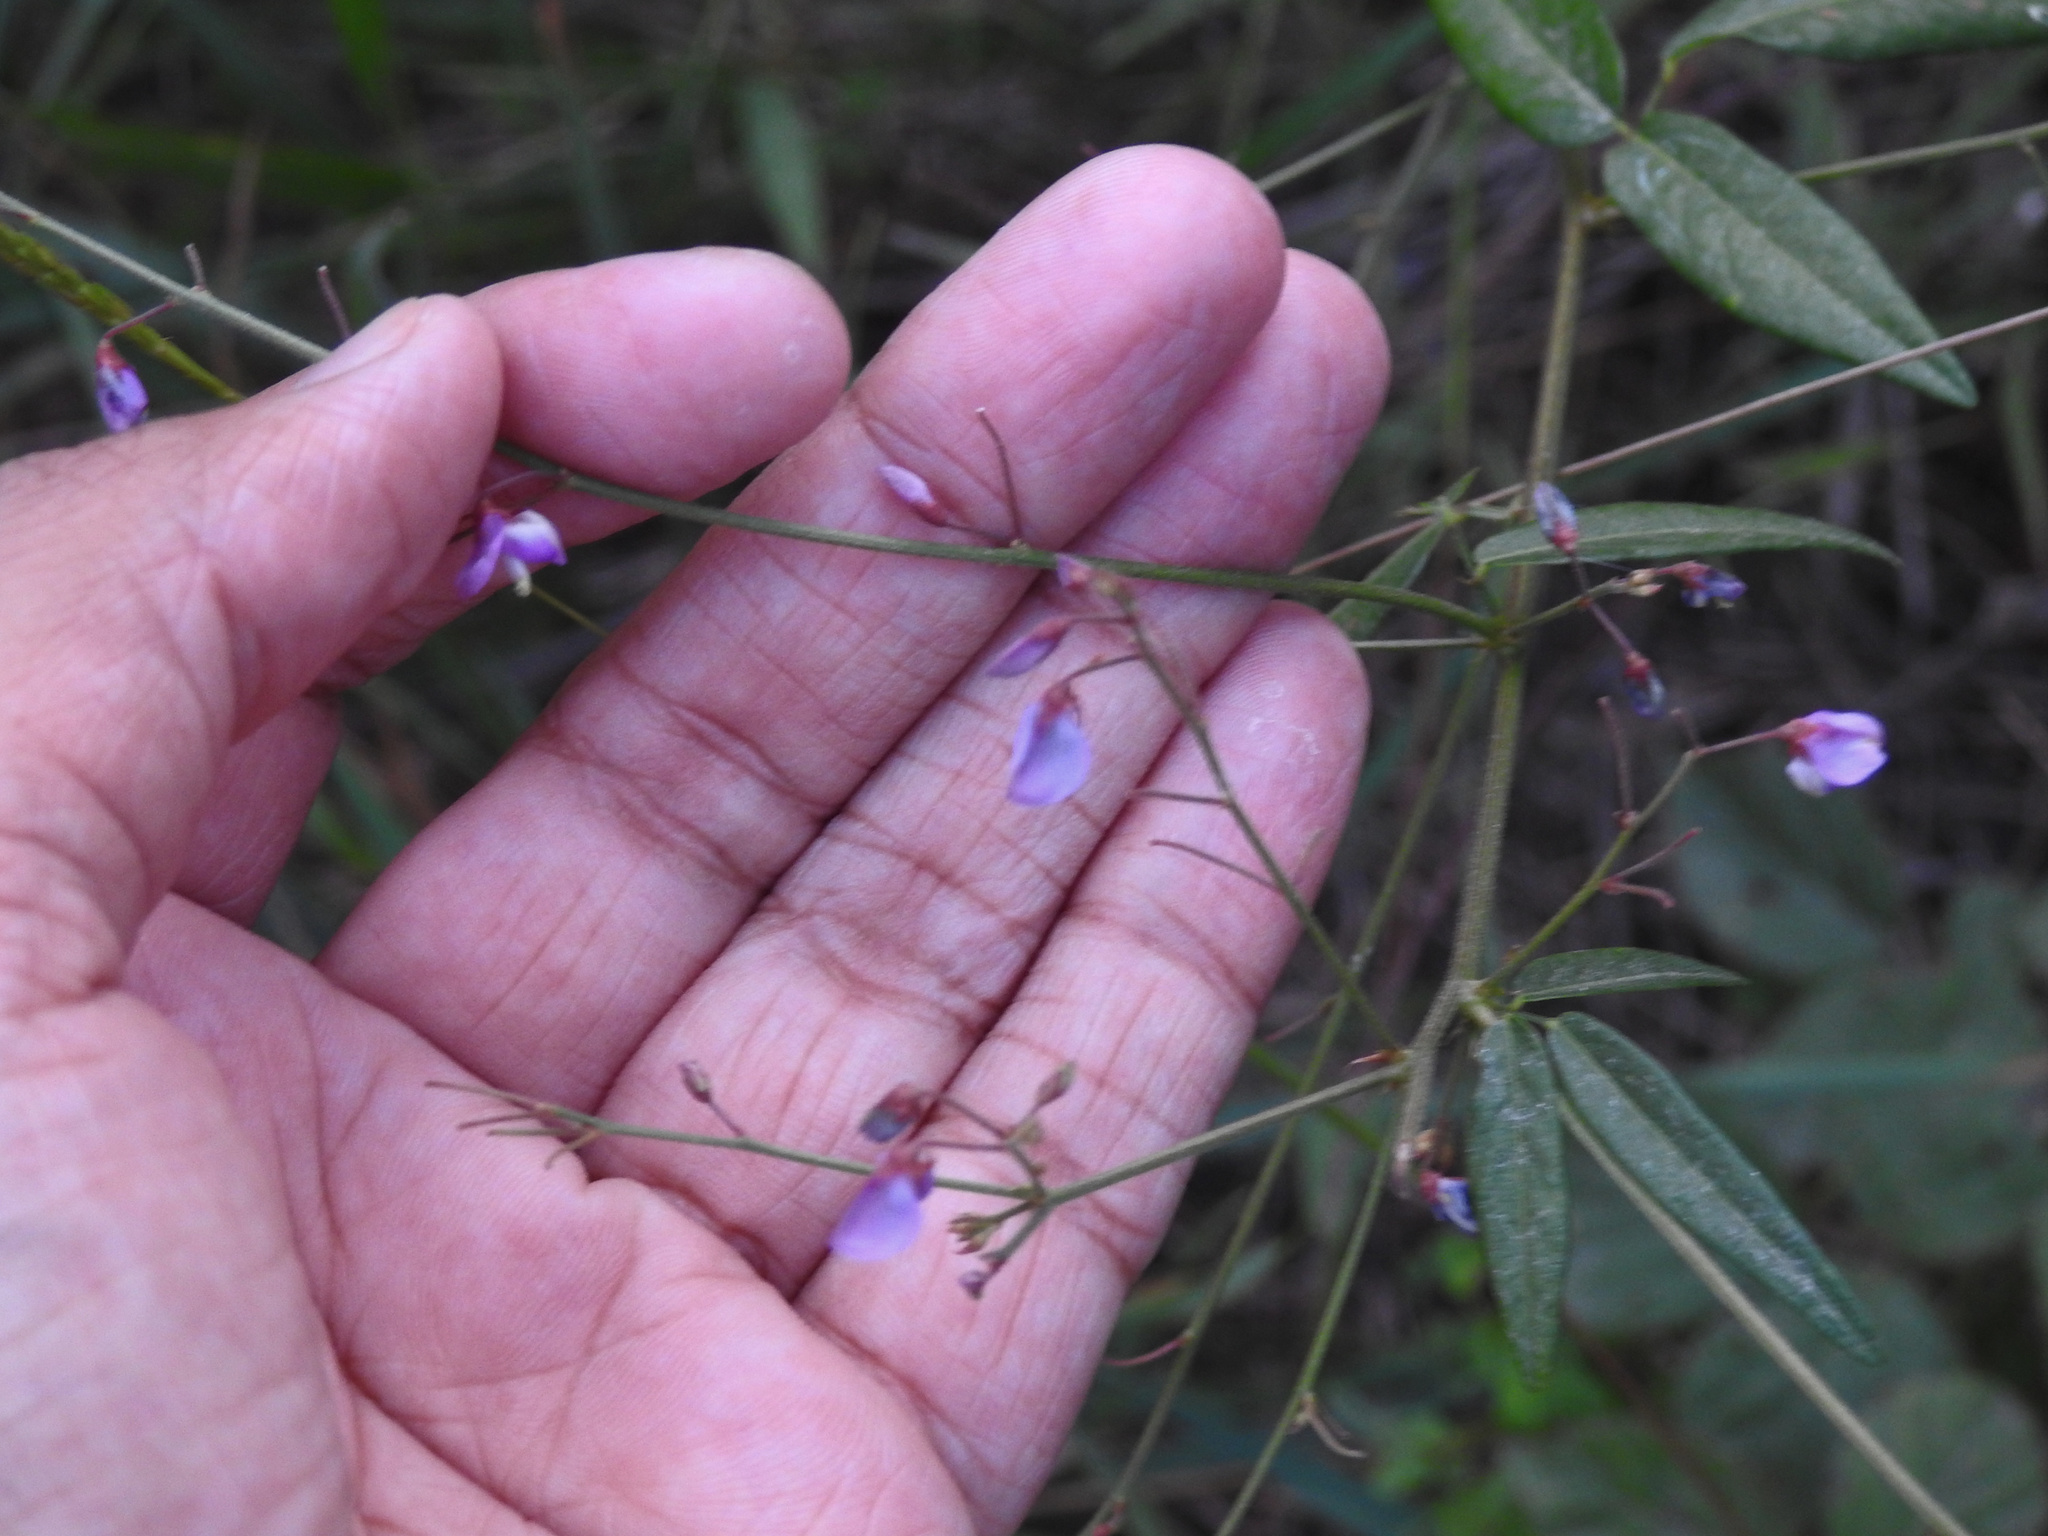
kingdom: Plantae
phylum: Tracheophyta
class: Magnoliopsida
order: Fabales
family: Fabaceae
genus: Desmodium
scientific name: Desmodium paniculatum
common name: Panicled tick-clover
